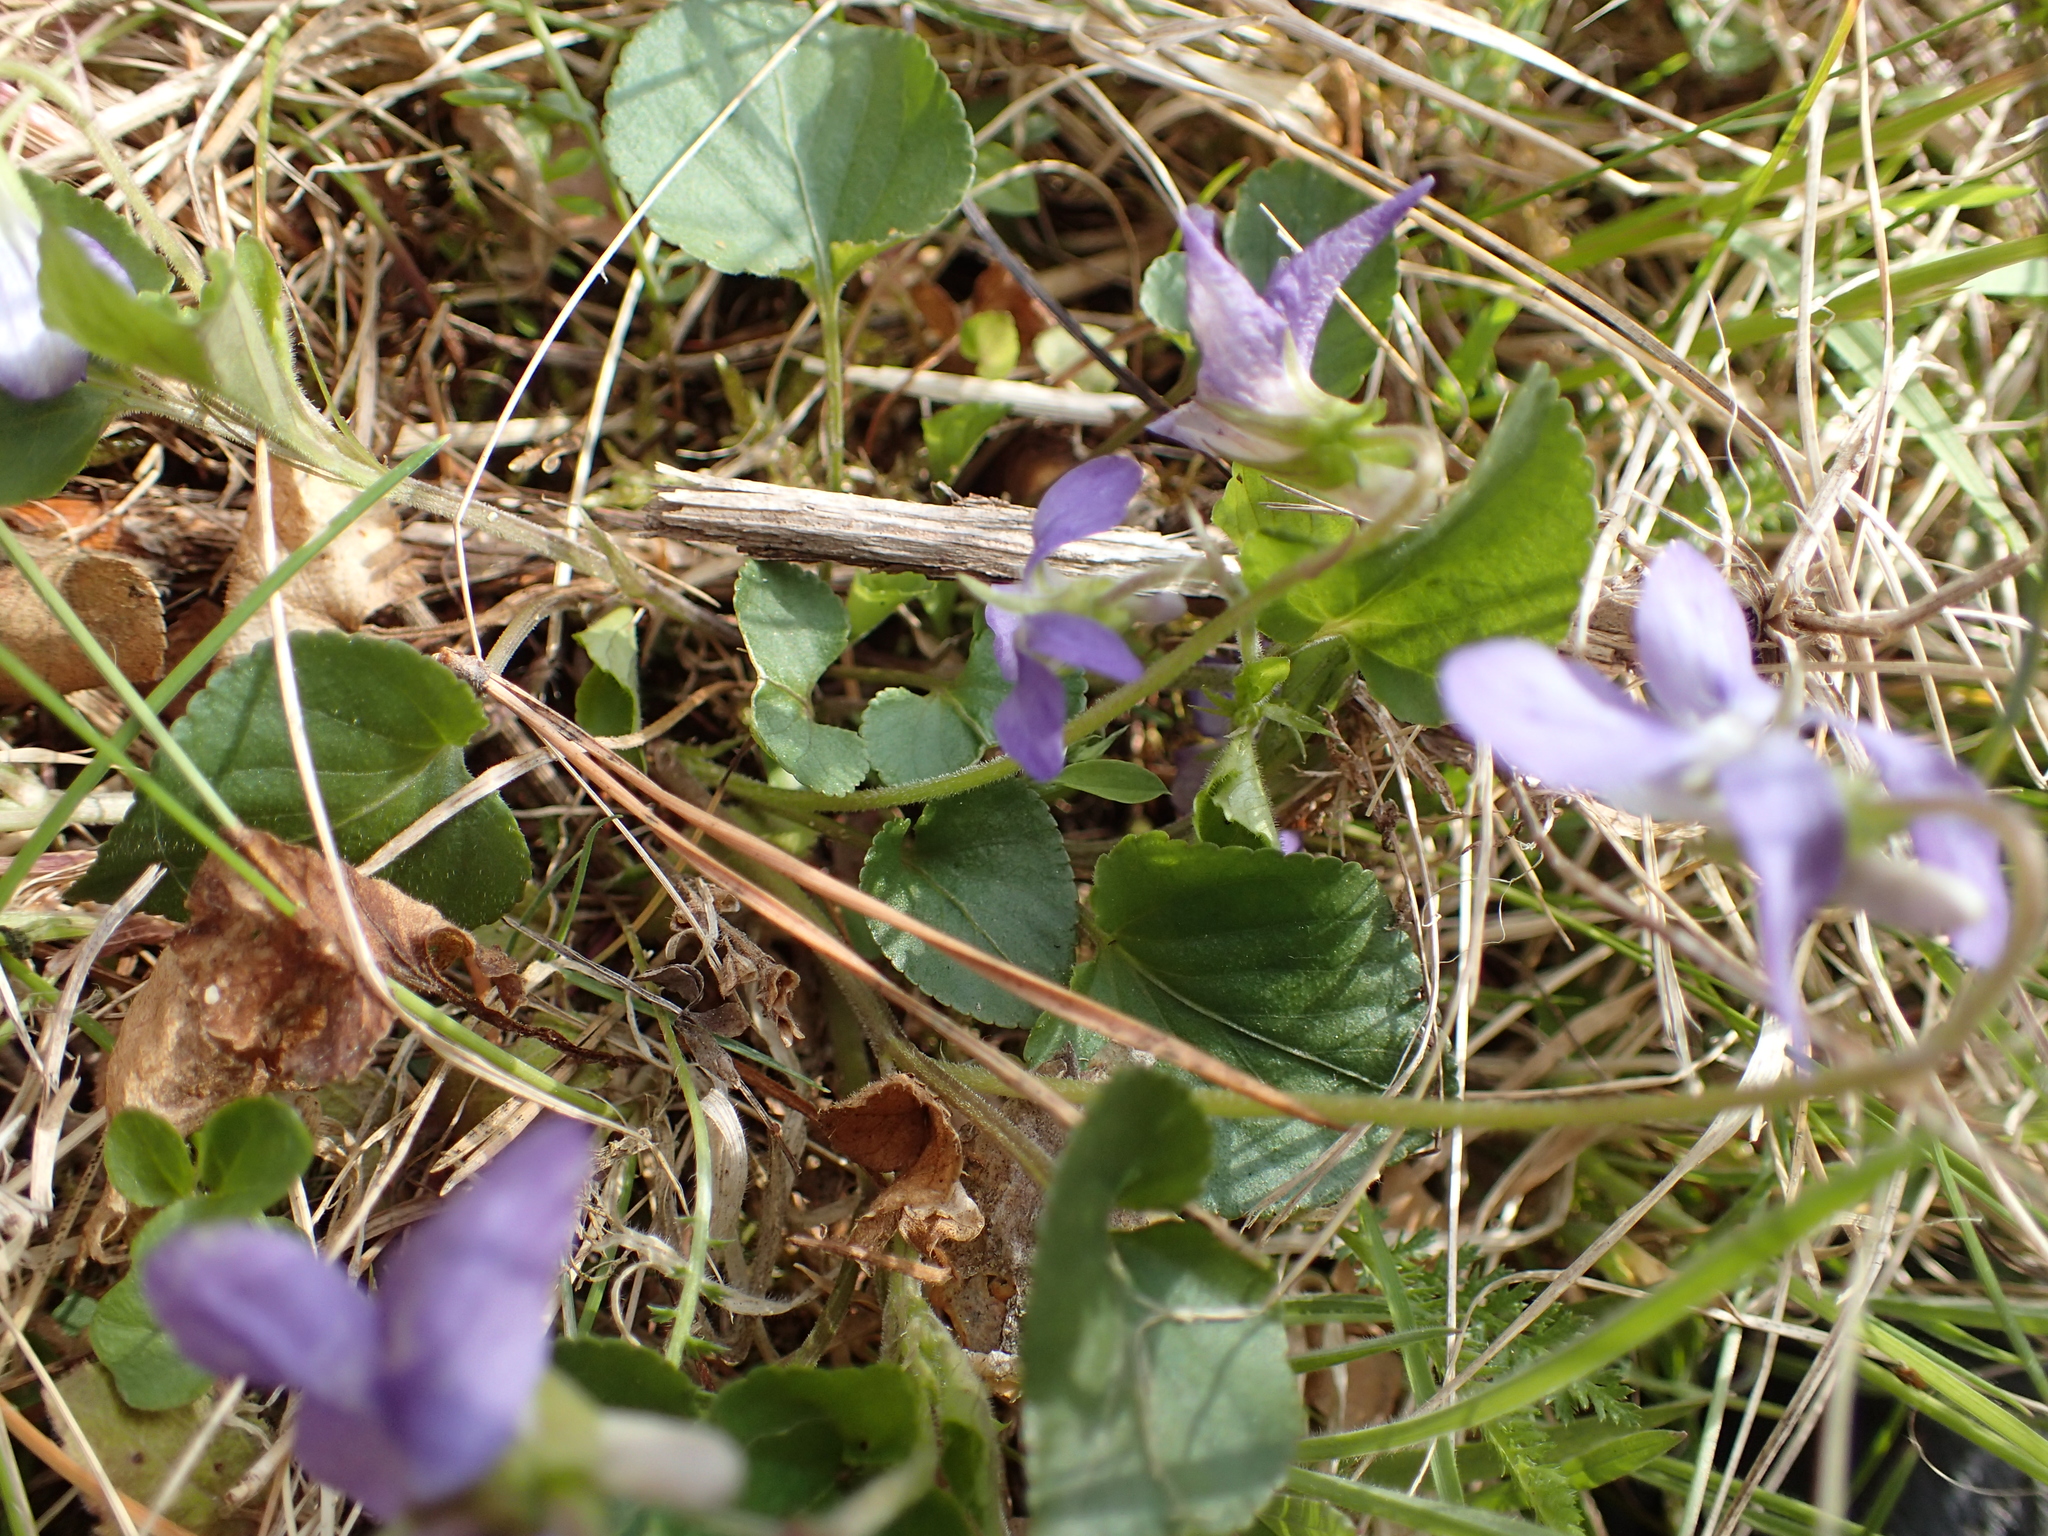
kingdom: Plantae
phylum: Tracheophyta
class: Magnoliopsida
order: Malpighiales
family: Violaceae
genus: Viola
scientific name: Viola riviniana
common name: Common dog-violet
